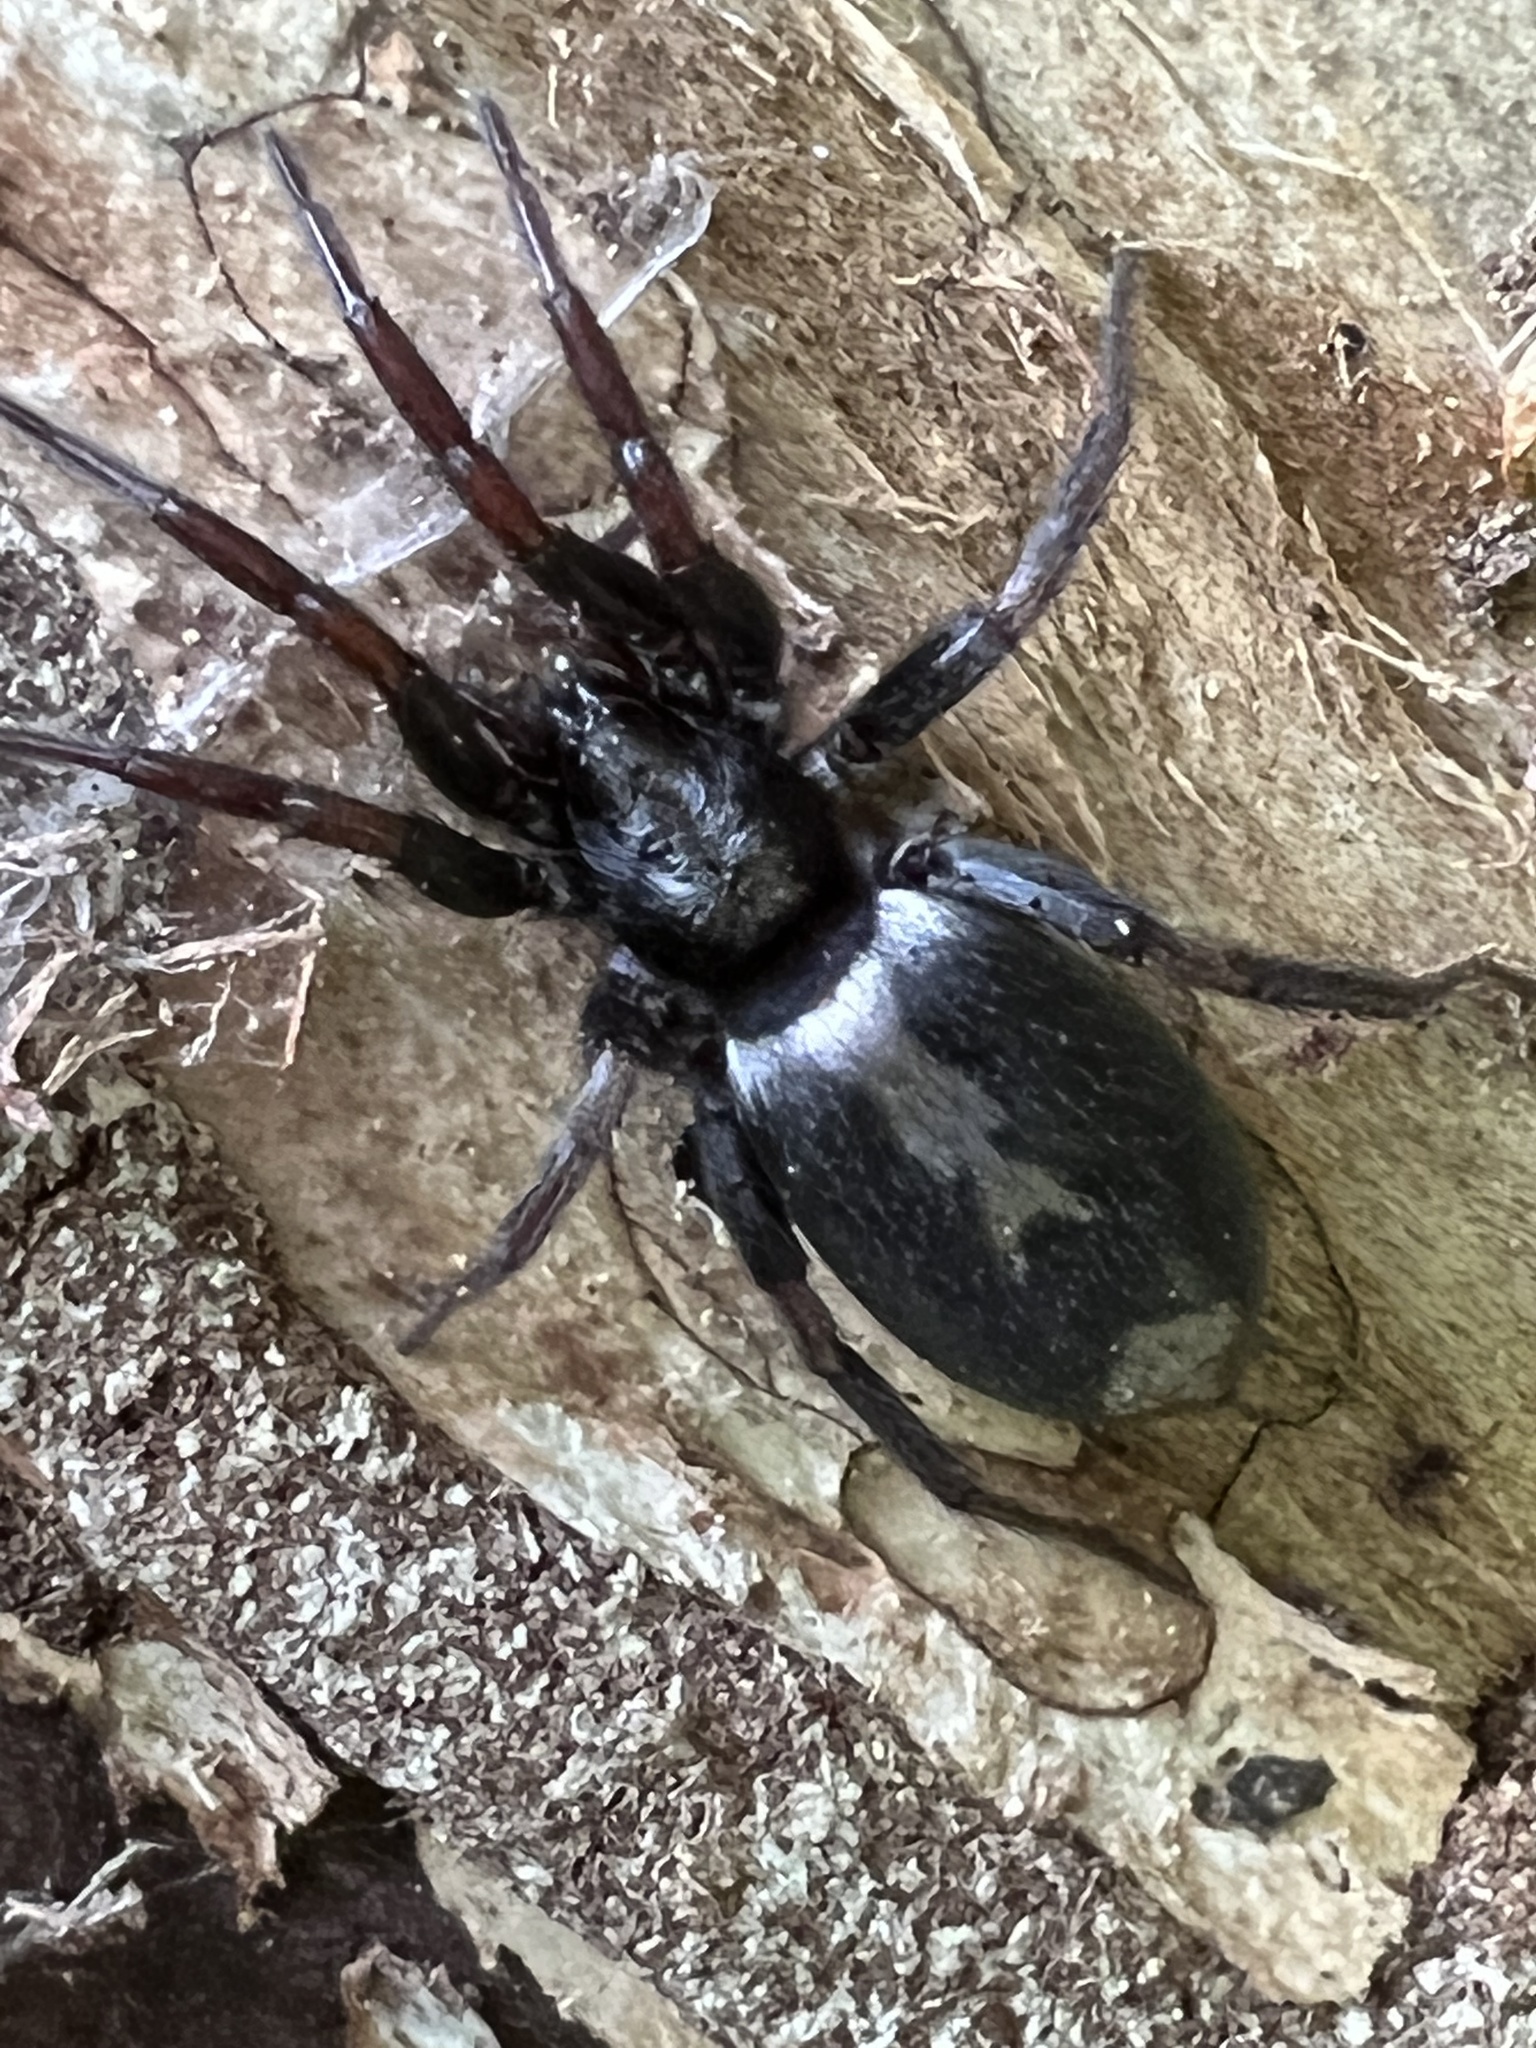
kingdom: Animalia
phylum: Arthropoda
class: Arachnida
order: Araneae
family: Gnaphosidae
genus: Herpyllus
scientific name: Herpyllus ecclesiasticus
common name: Eastern parson spider
